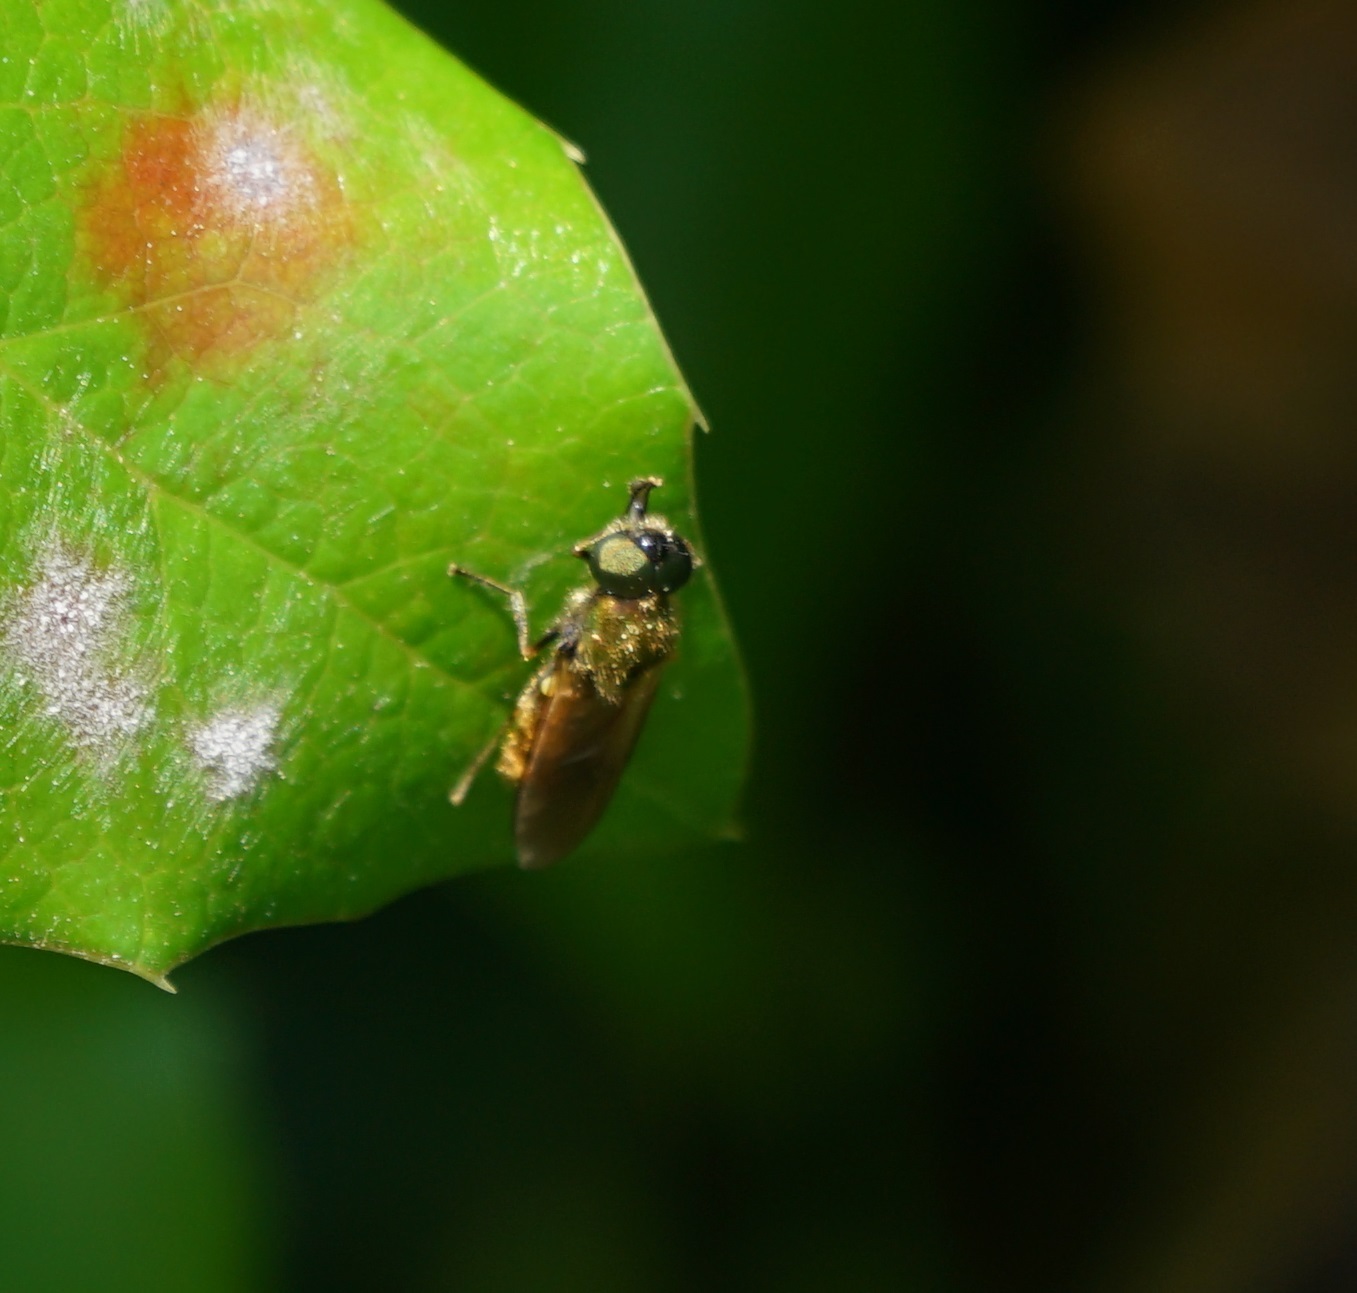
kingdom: Animalia
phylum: Arthropoda
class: Insecta
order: Diptera
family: Stratiomyidae
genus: Chloromyia
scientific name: Chloromyia formosa
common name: Soldier fly
